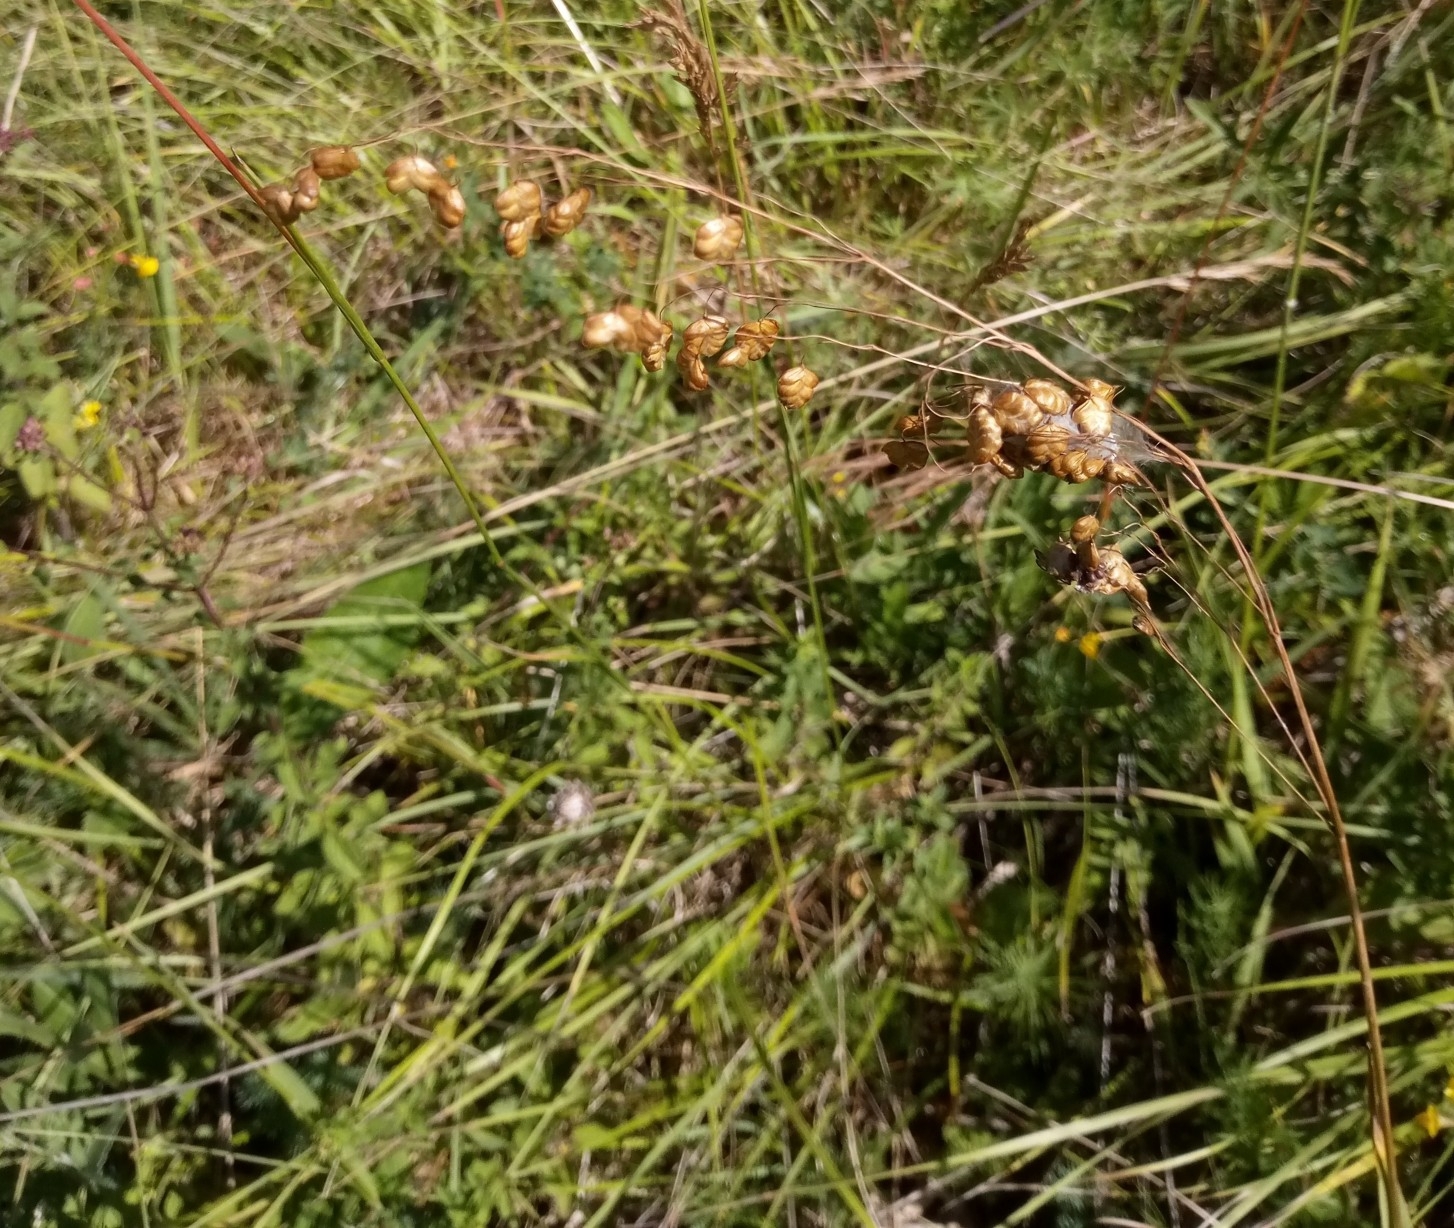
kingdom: Plantae
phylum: Tracheophyta
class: Liliopsida
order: Poales
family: Poaceae
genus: Briza
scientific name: Briza media
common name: Quaking grass
